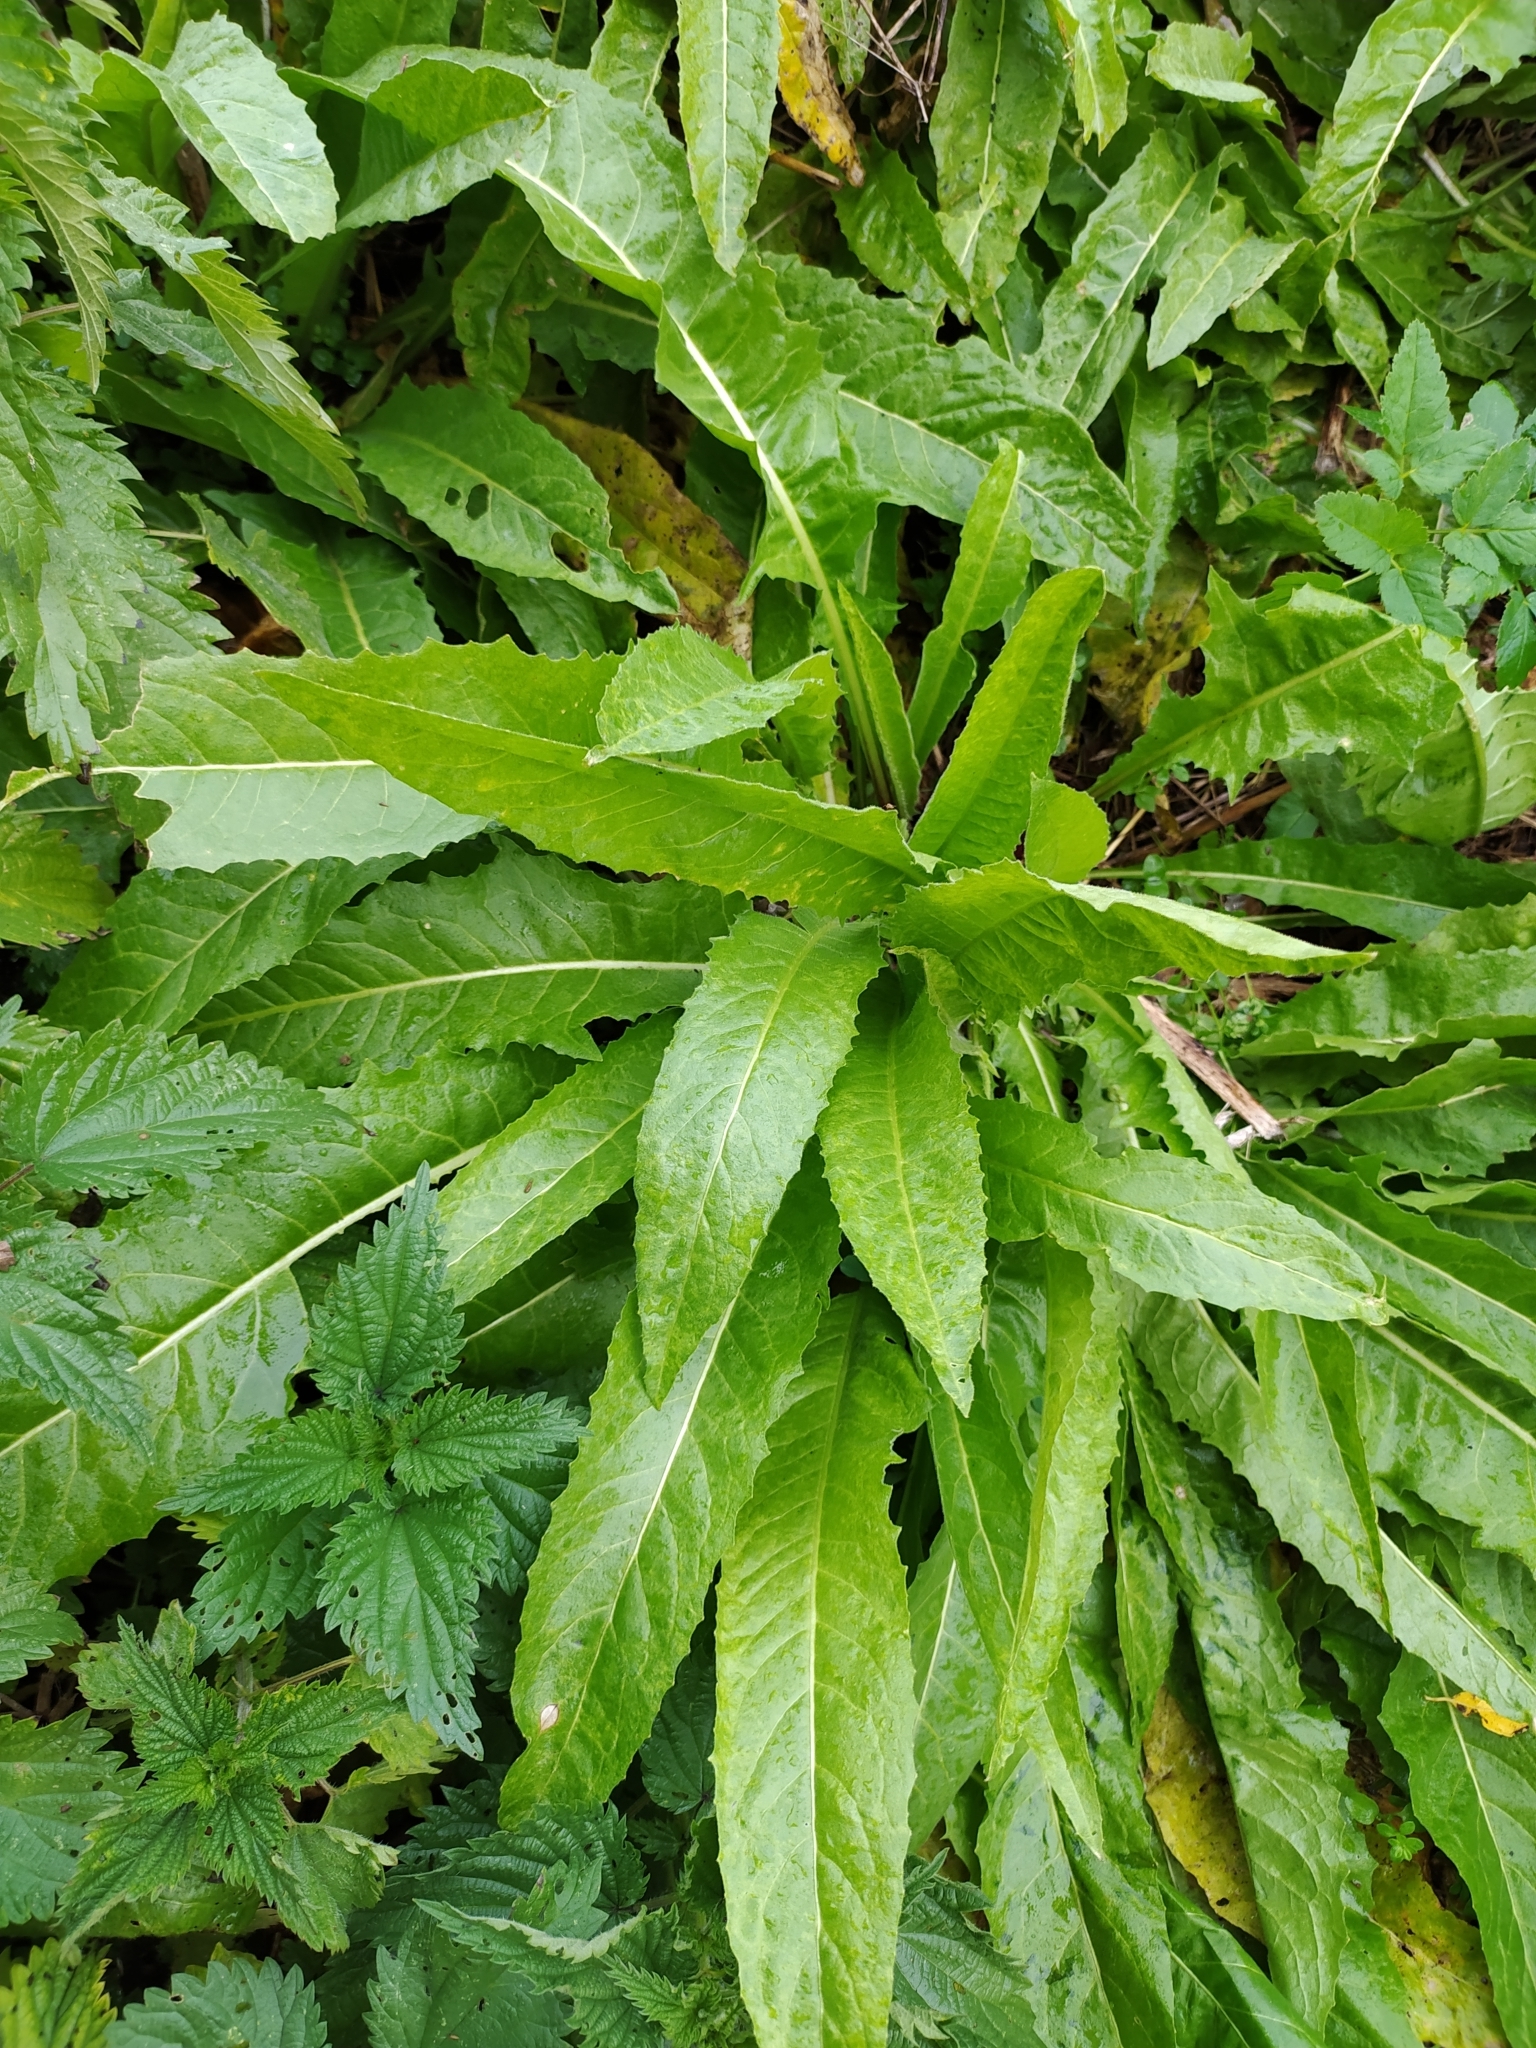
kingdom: Plantae
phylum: Tracheophyta
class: Magnoliopsida
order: Brassicales
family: Brassicaceae
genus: Bunias
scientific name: Bunias orientalis
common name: Warty-cabbage
